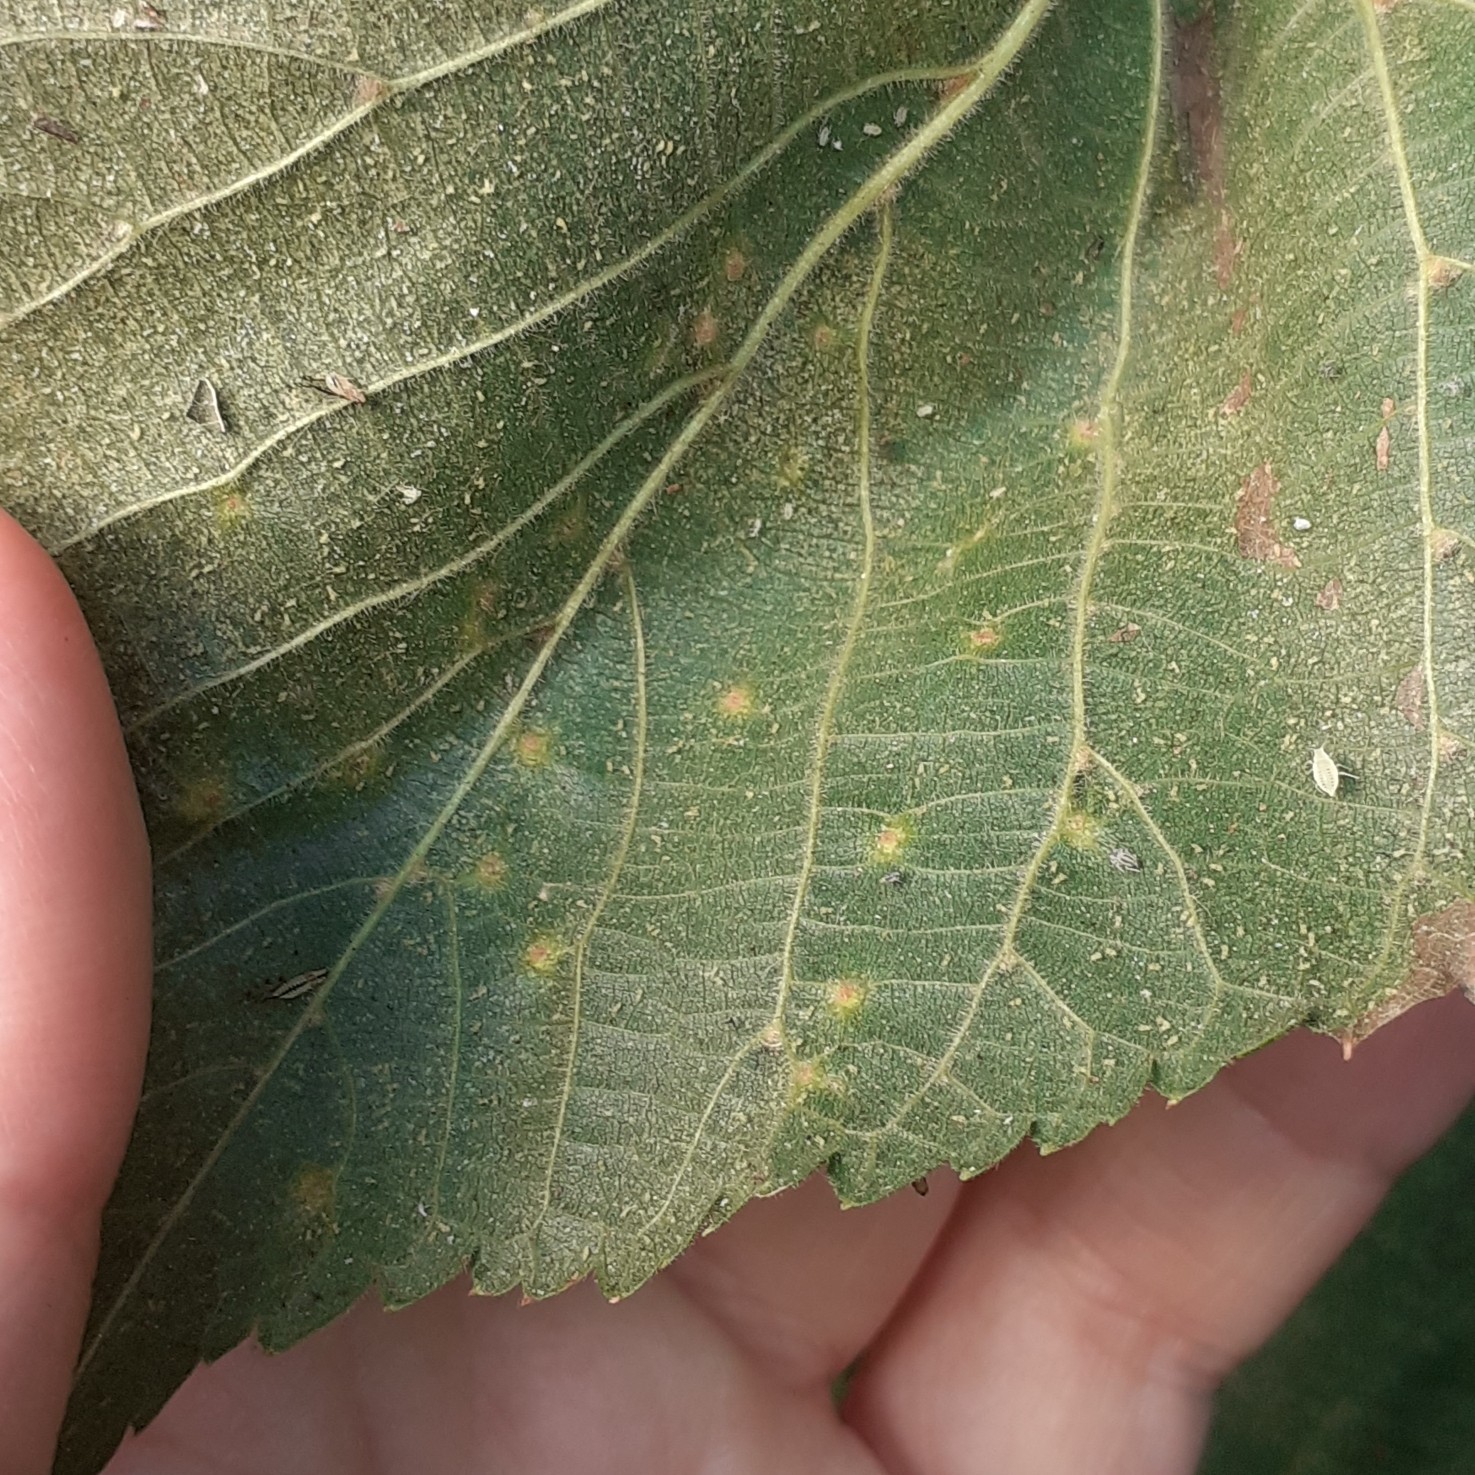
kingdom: Animalia
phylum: Arthropoda
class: Arachnida
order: Trombidiformes
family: Eriophyidae
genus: Eriophyes
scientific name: Eriophyes tiliae
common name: Red nail gall mite
